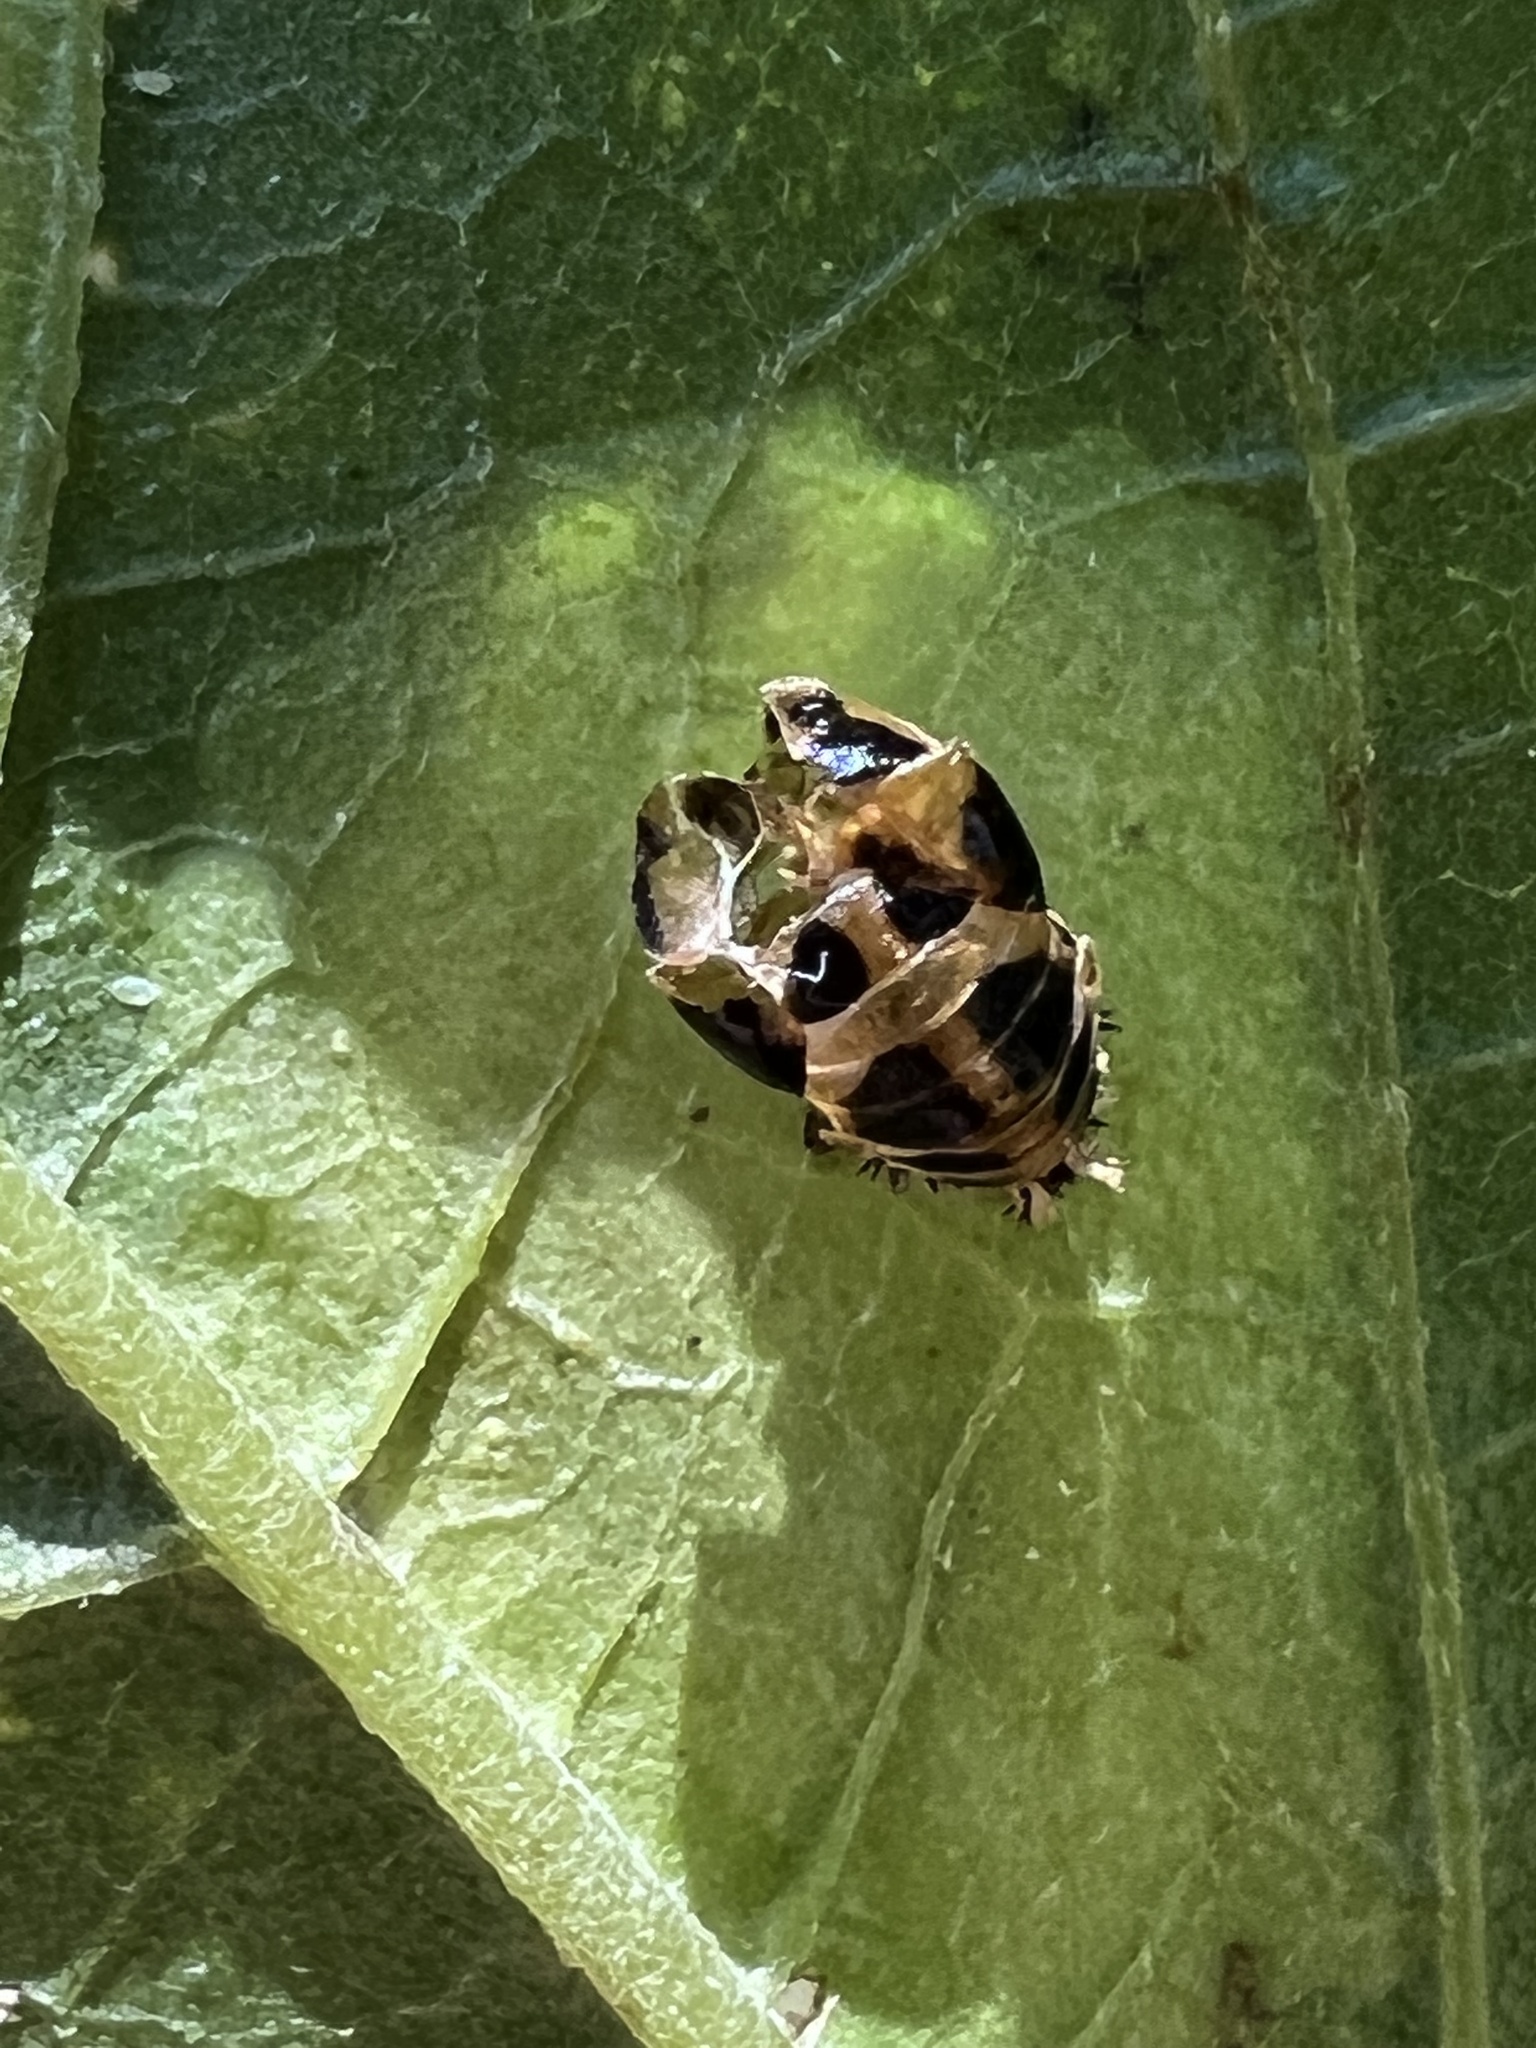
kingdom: Animalia
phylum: Arthropoda
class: Insecta
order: Coleoptera
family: Coccinellidae
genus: Harmonia
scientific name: Harmonia axyridis
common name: Harlequin ladybird
